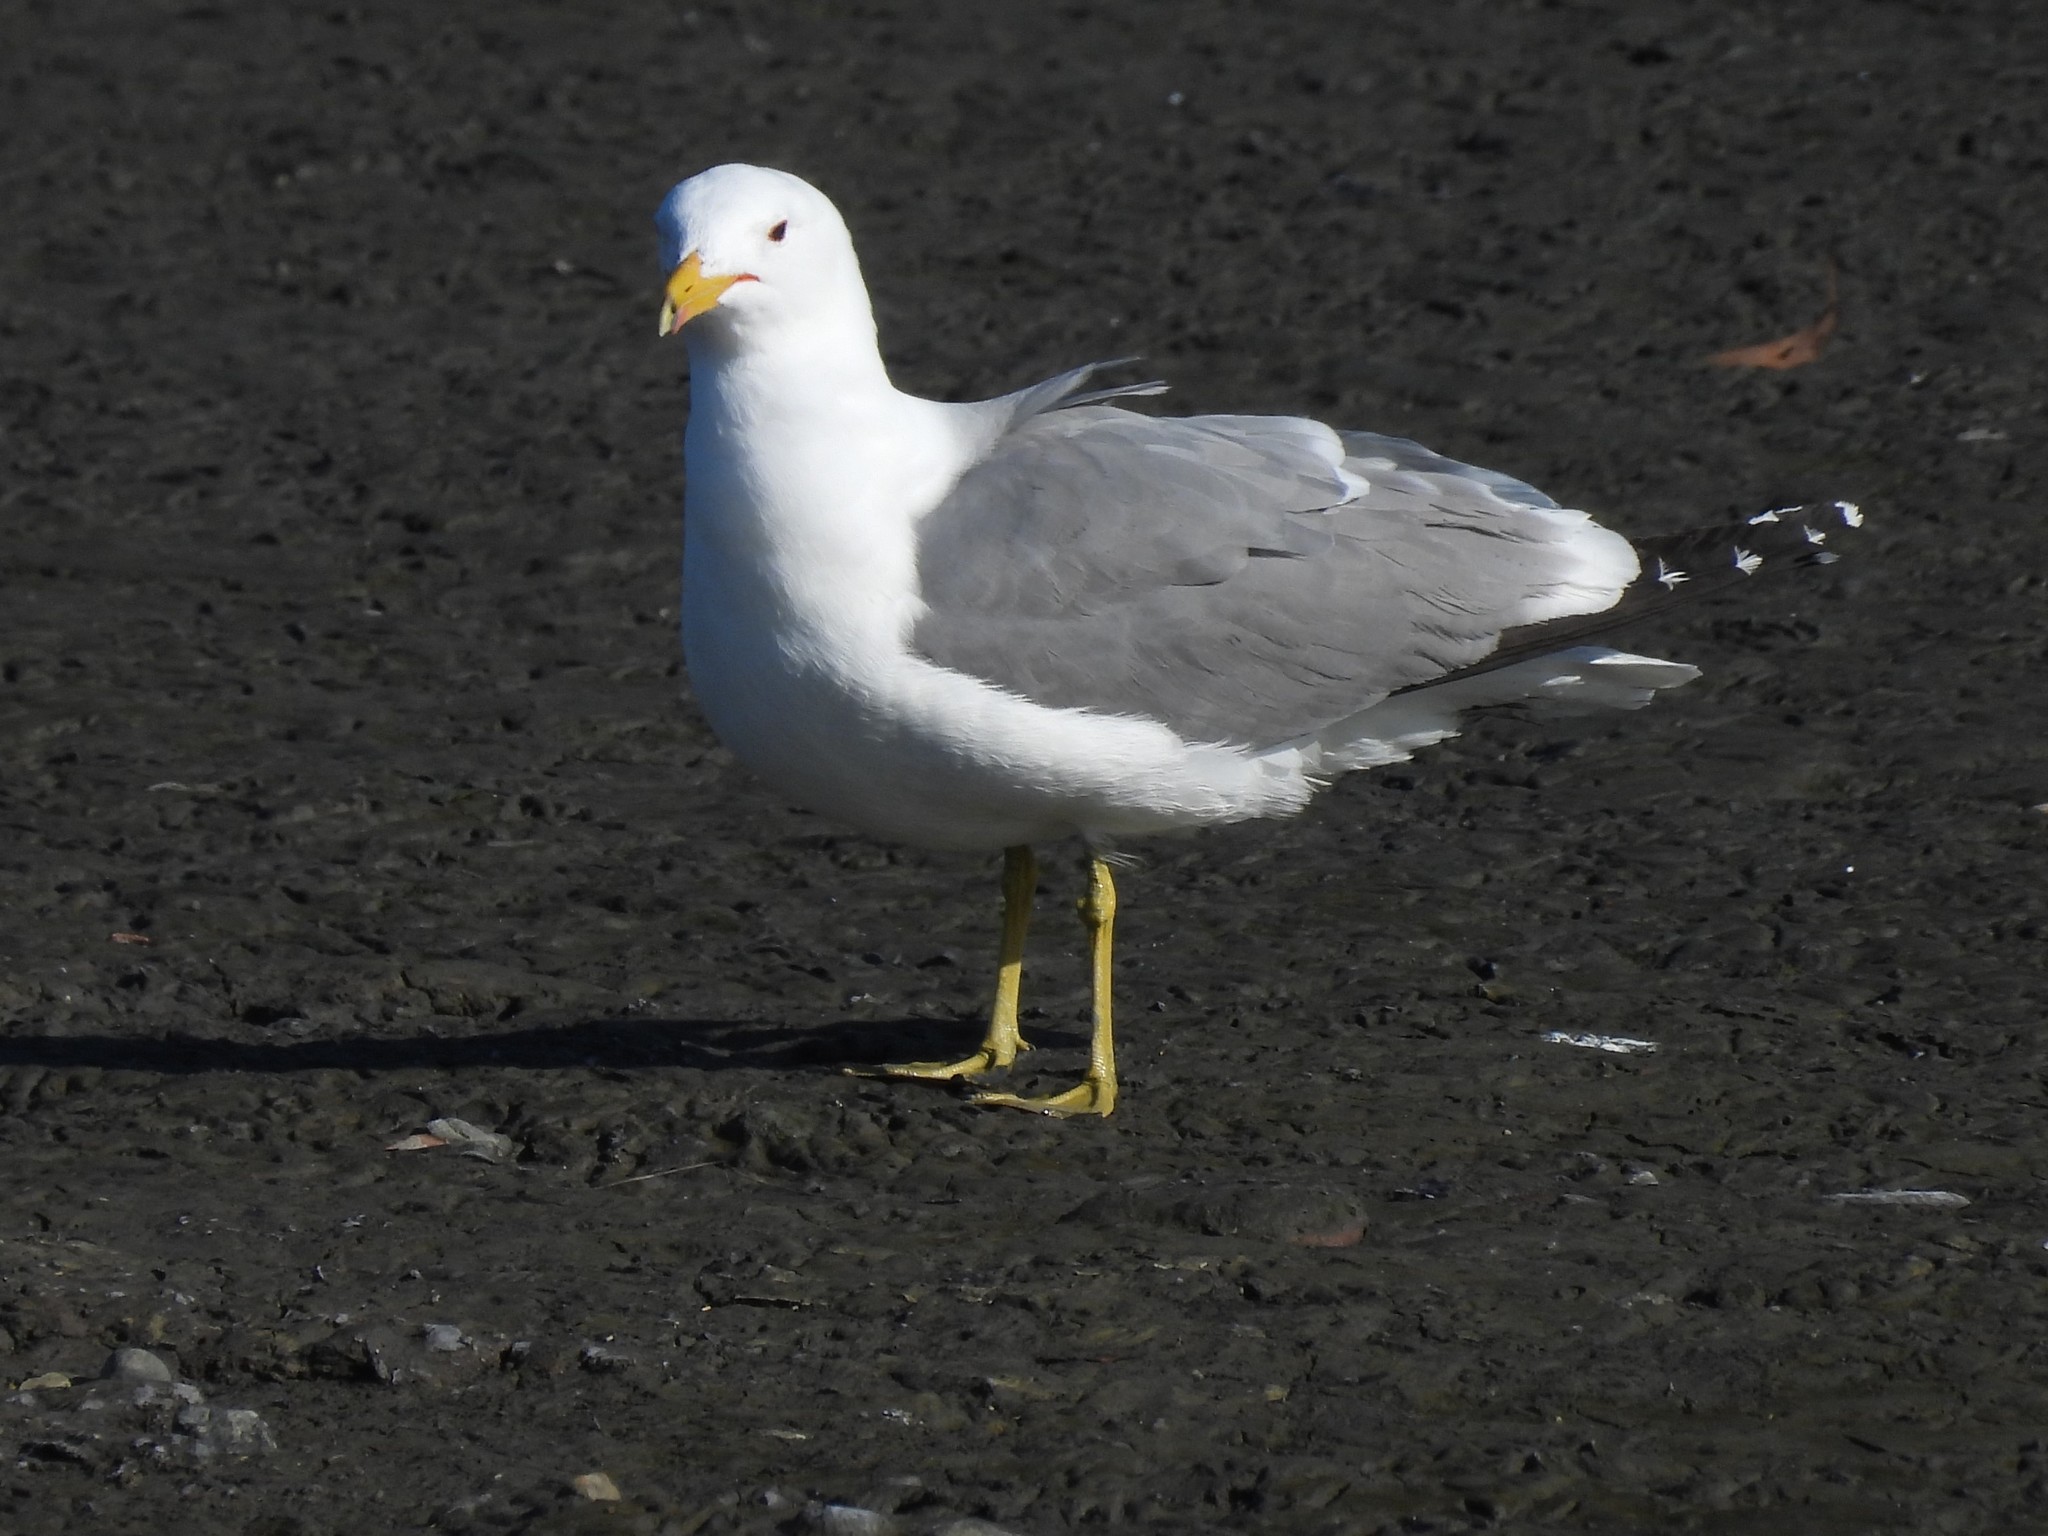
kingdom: Animalia
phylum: Chordata
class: Aves
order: Charadriiformes
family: Laridae
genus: Larus
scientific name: Larus californicus
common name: California gull
